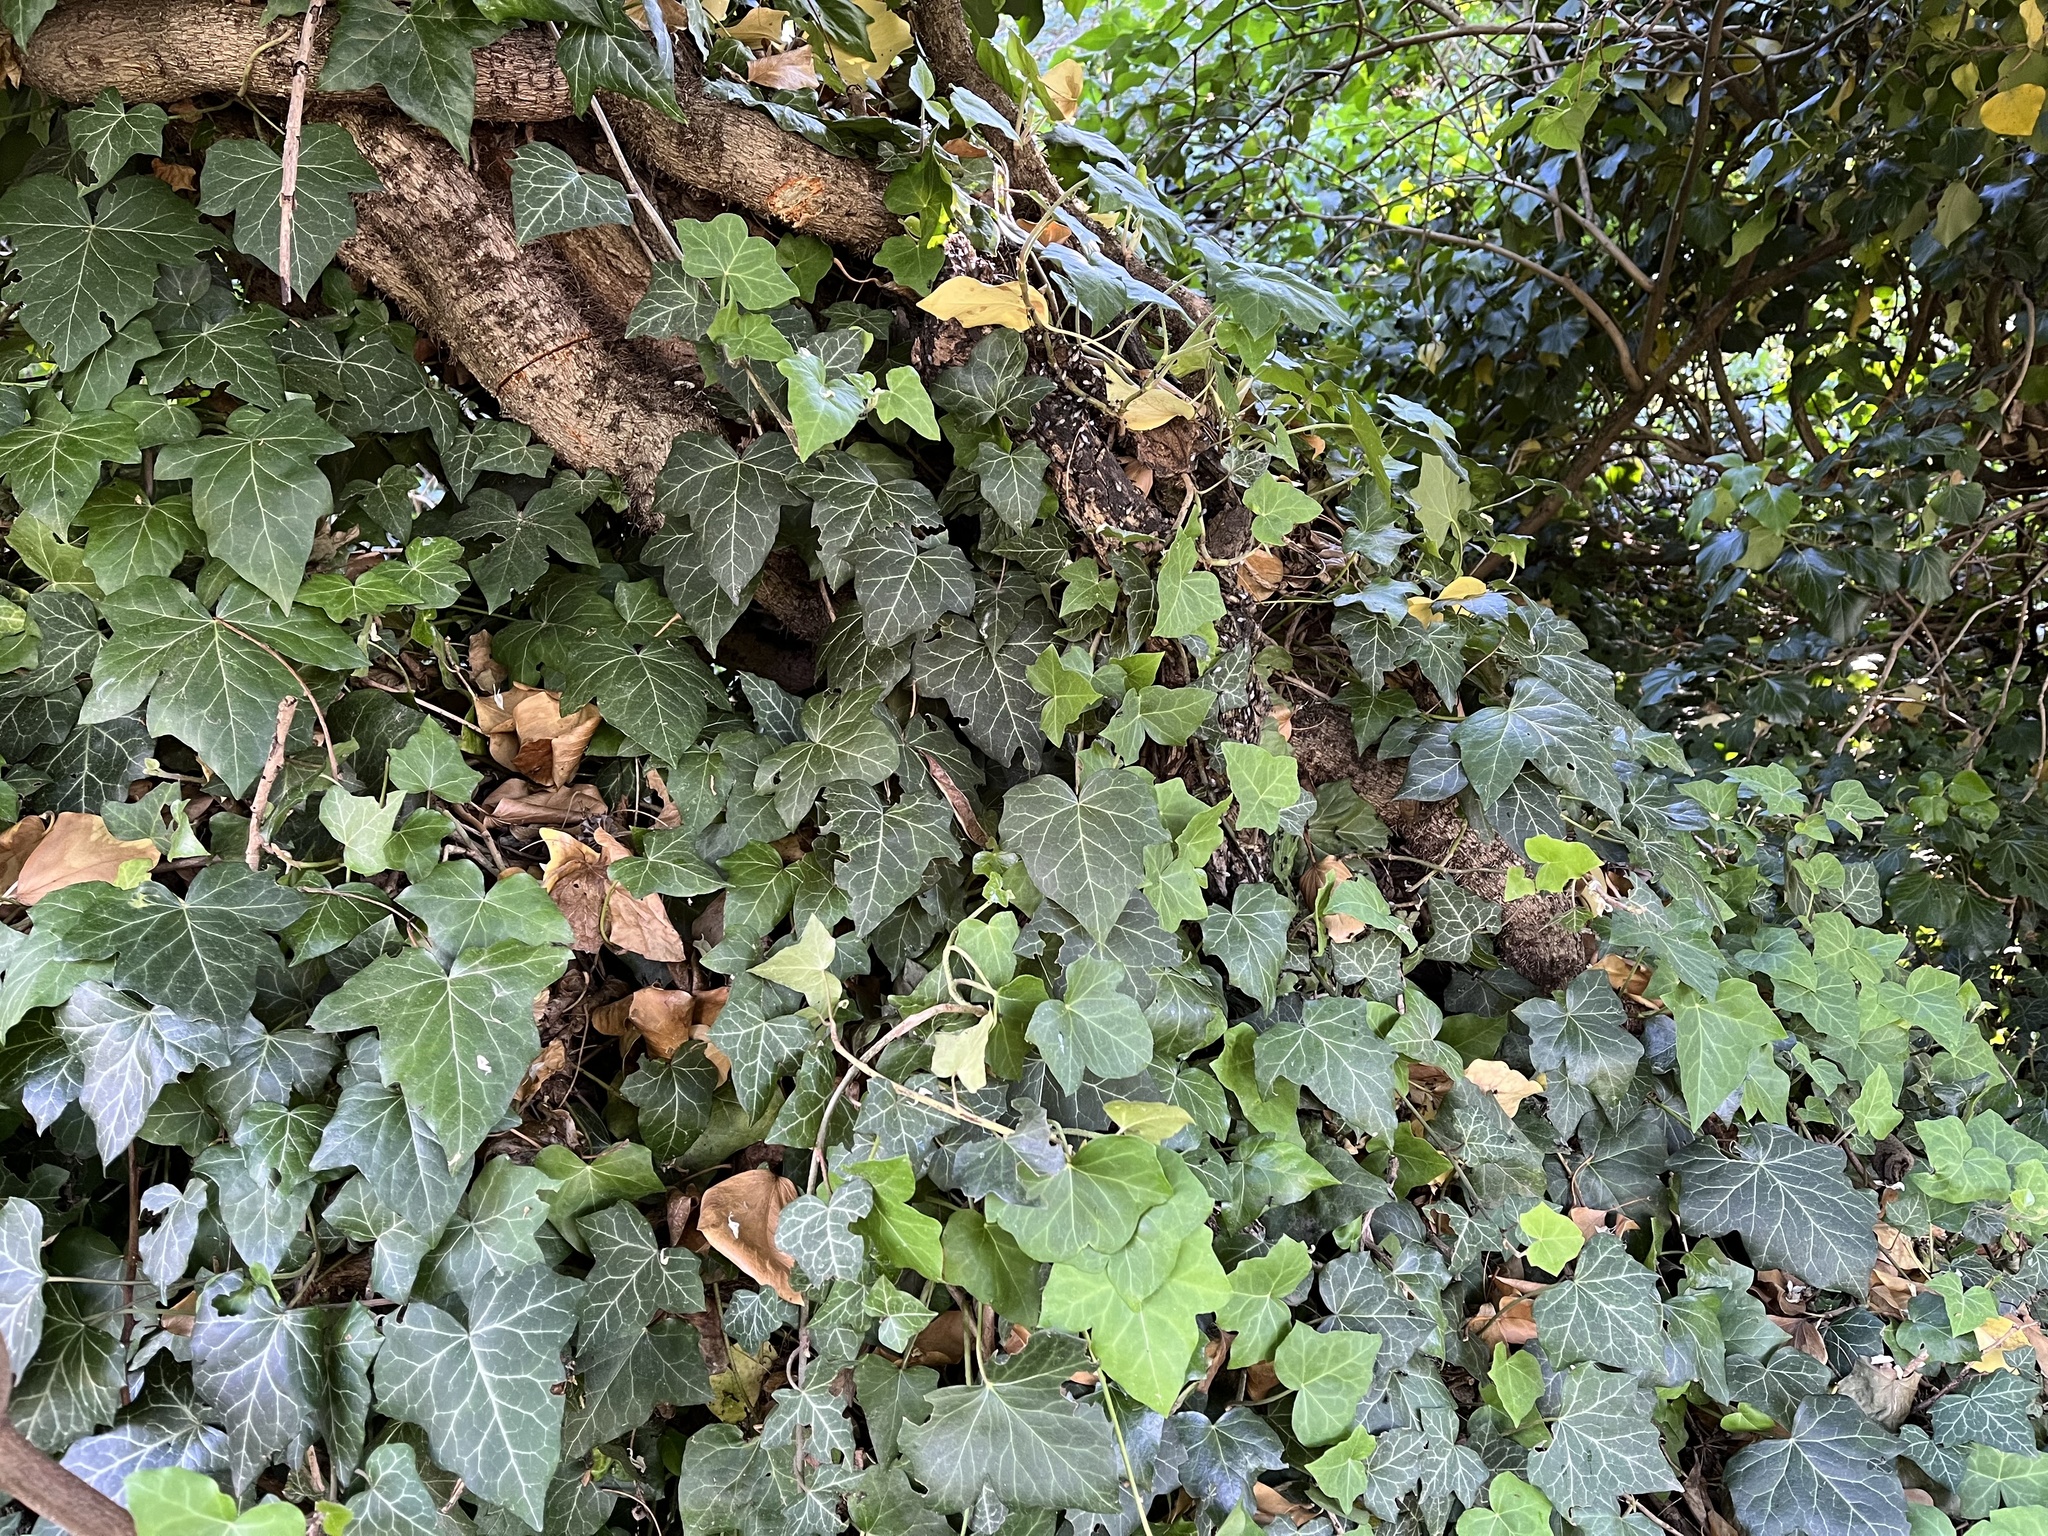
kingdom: Plantae
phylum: Tracheophyta
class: Magnoliopsida
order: Apiales
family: Araliaceae
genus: Hedera
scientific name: Hedera helix
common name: Ivy
